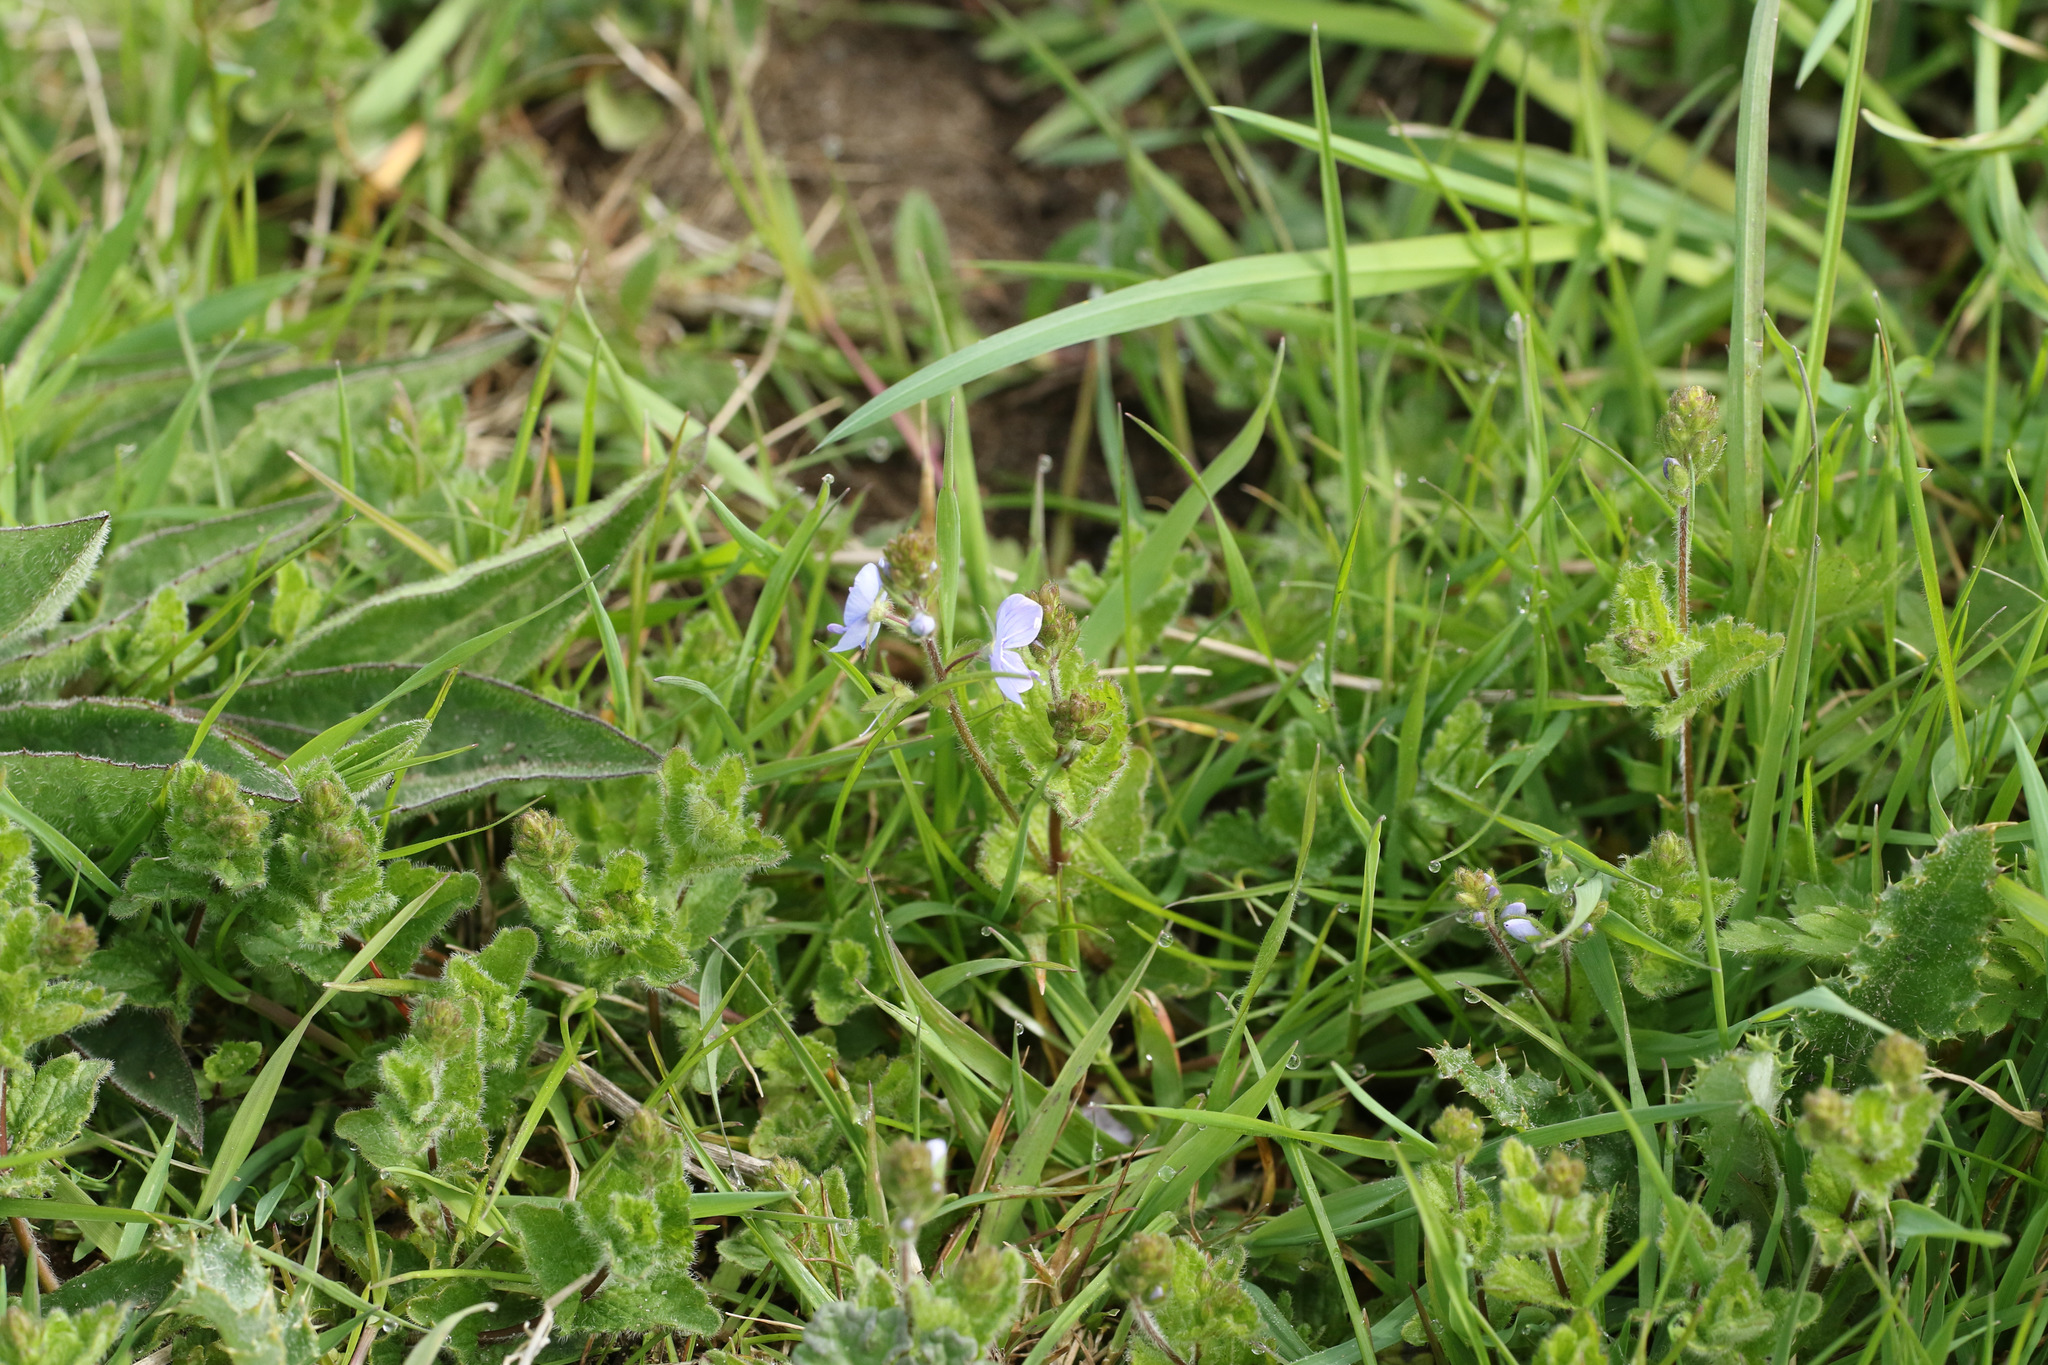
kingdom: Plantae
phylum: Tracheophyta
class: Magnoliopsida
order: Lamiales
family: Plantaginaceae
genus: Veronica
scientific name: Veronica chamaedrys
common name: Germander speedwell
